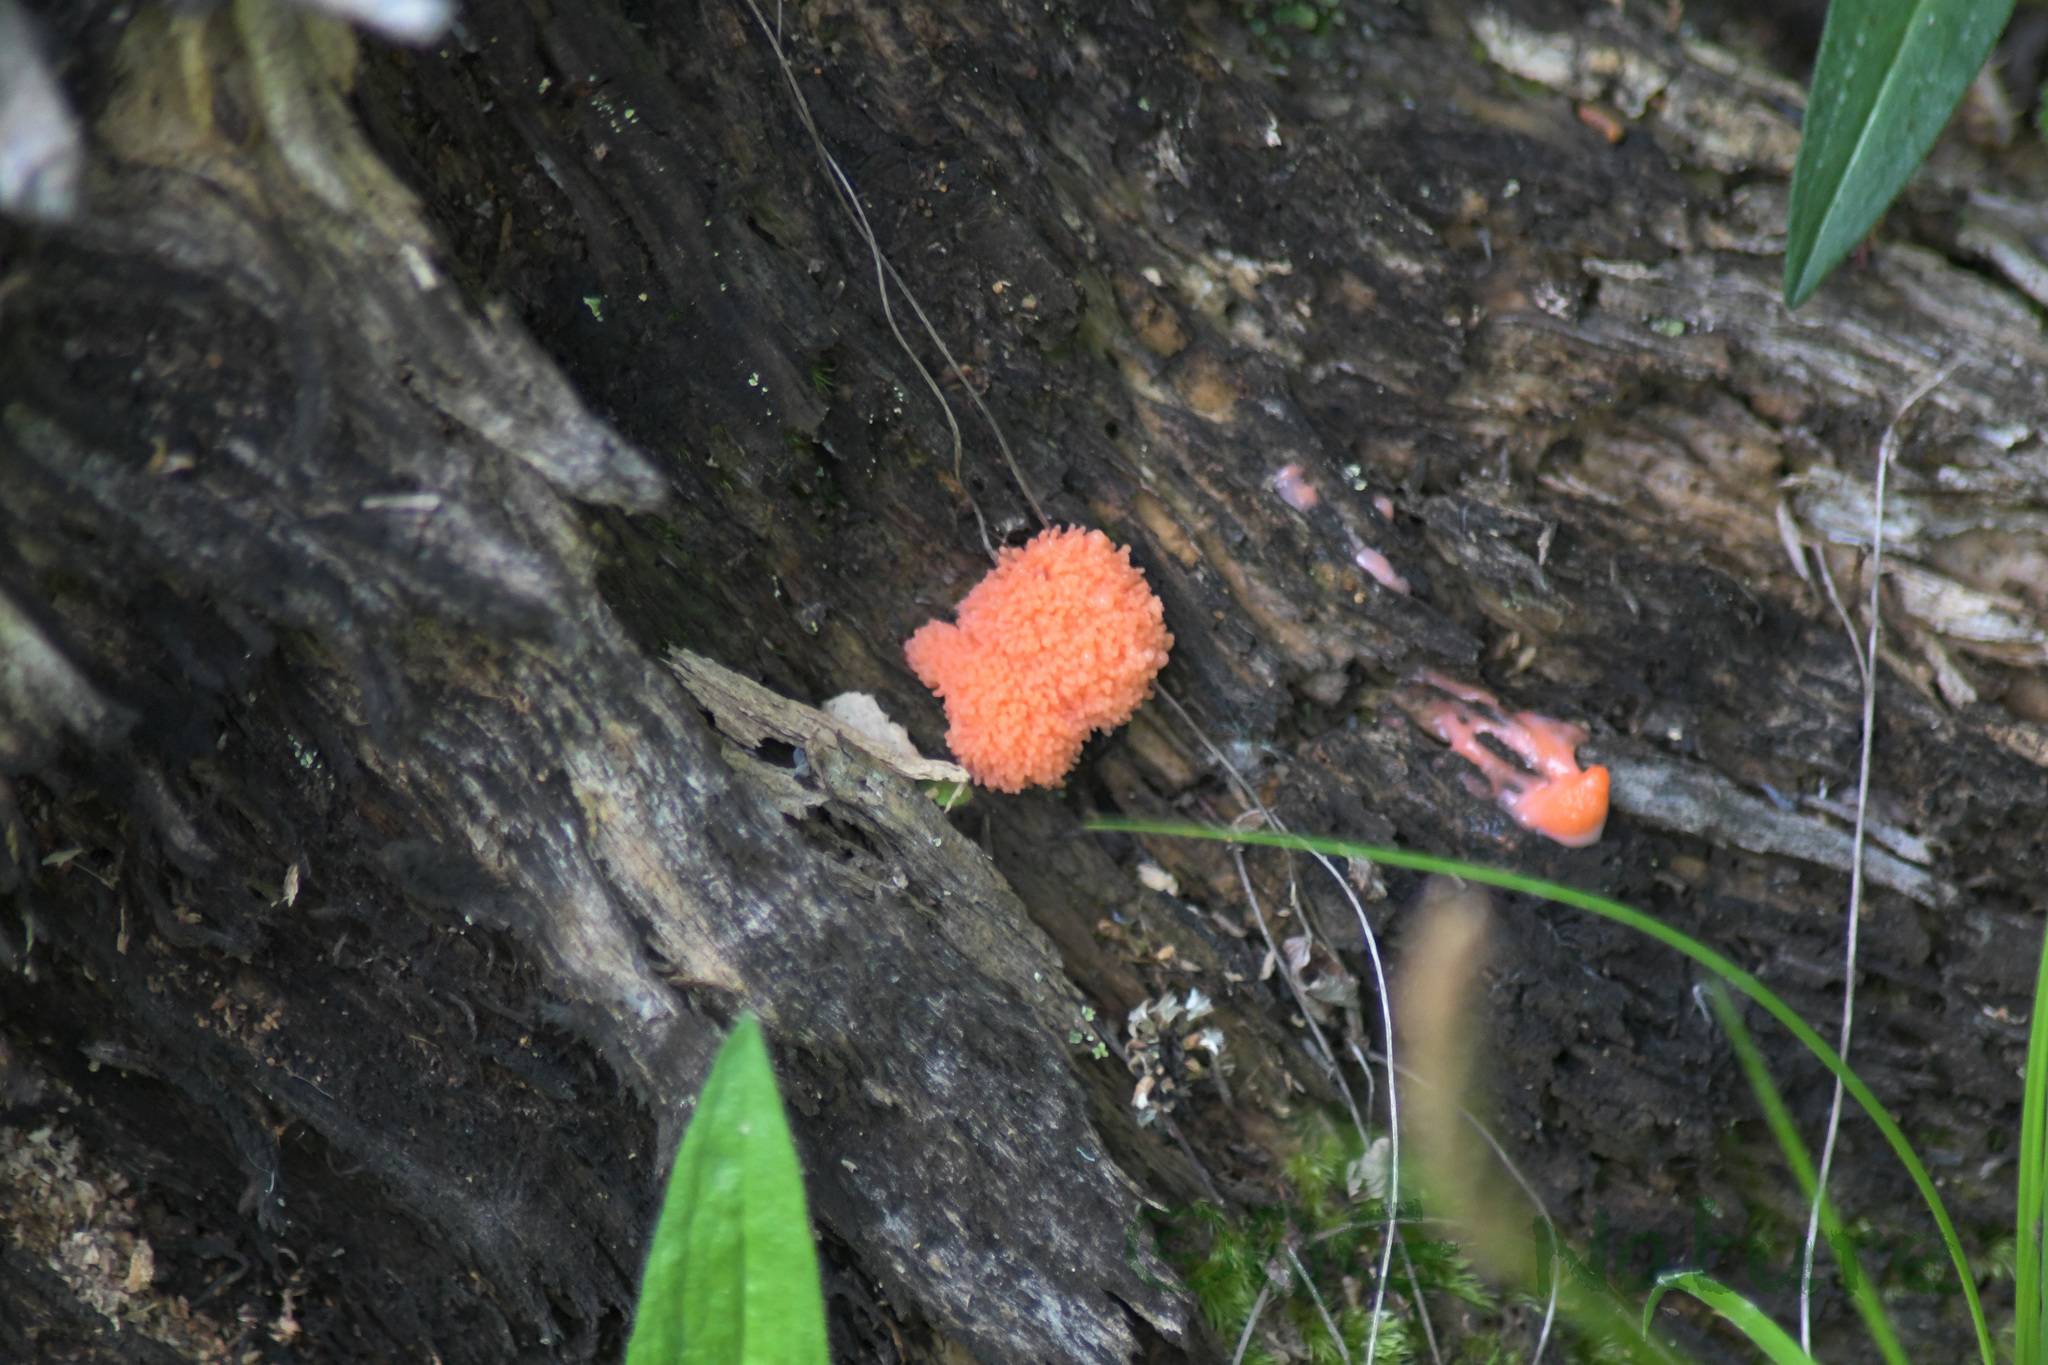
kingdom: Protozoa
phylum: Mycetozoa
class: Myxomycetes
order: Cribrariales
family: Tubiferaceae
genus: Tubifera
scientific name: Tubifera ferruginosa
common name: Red raspberry slime mold
